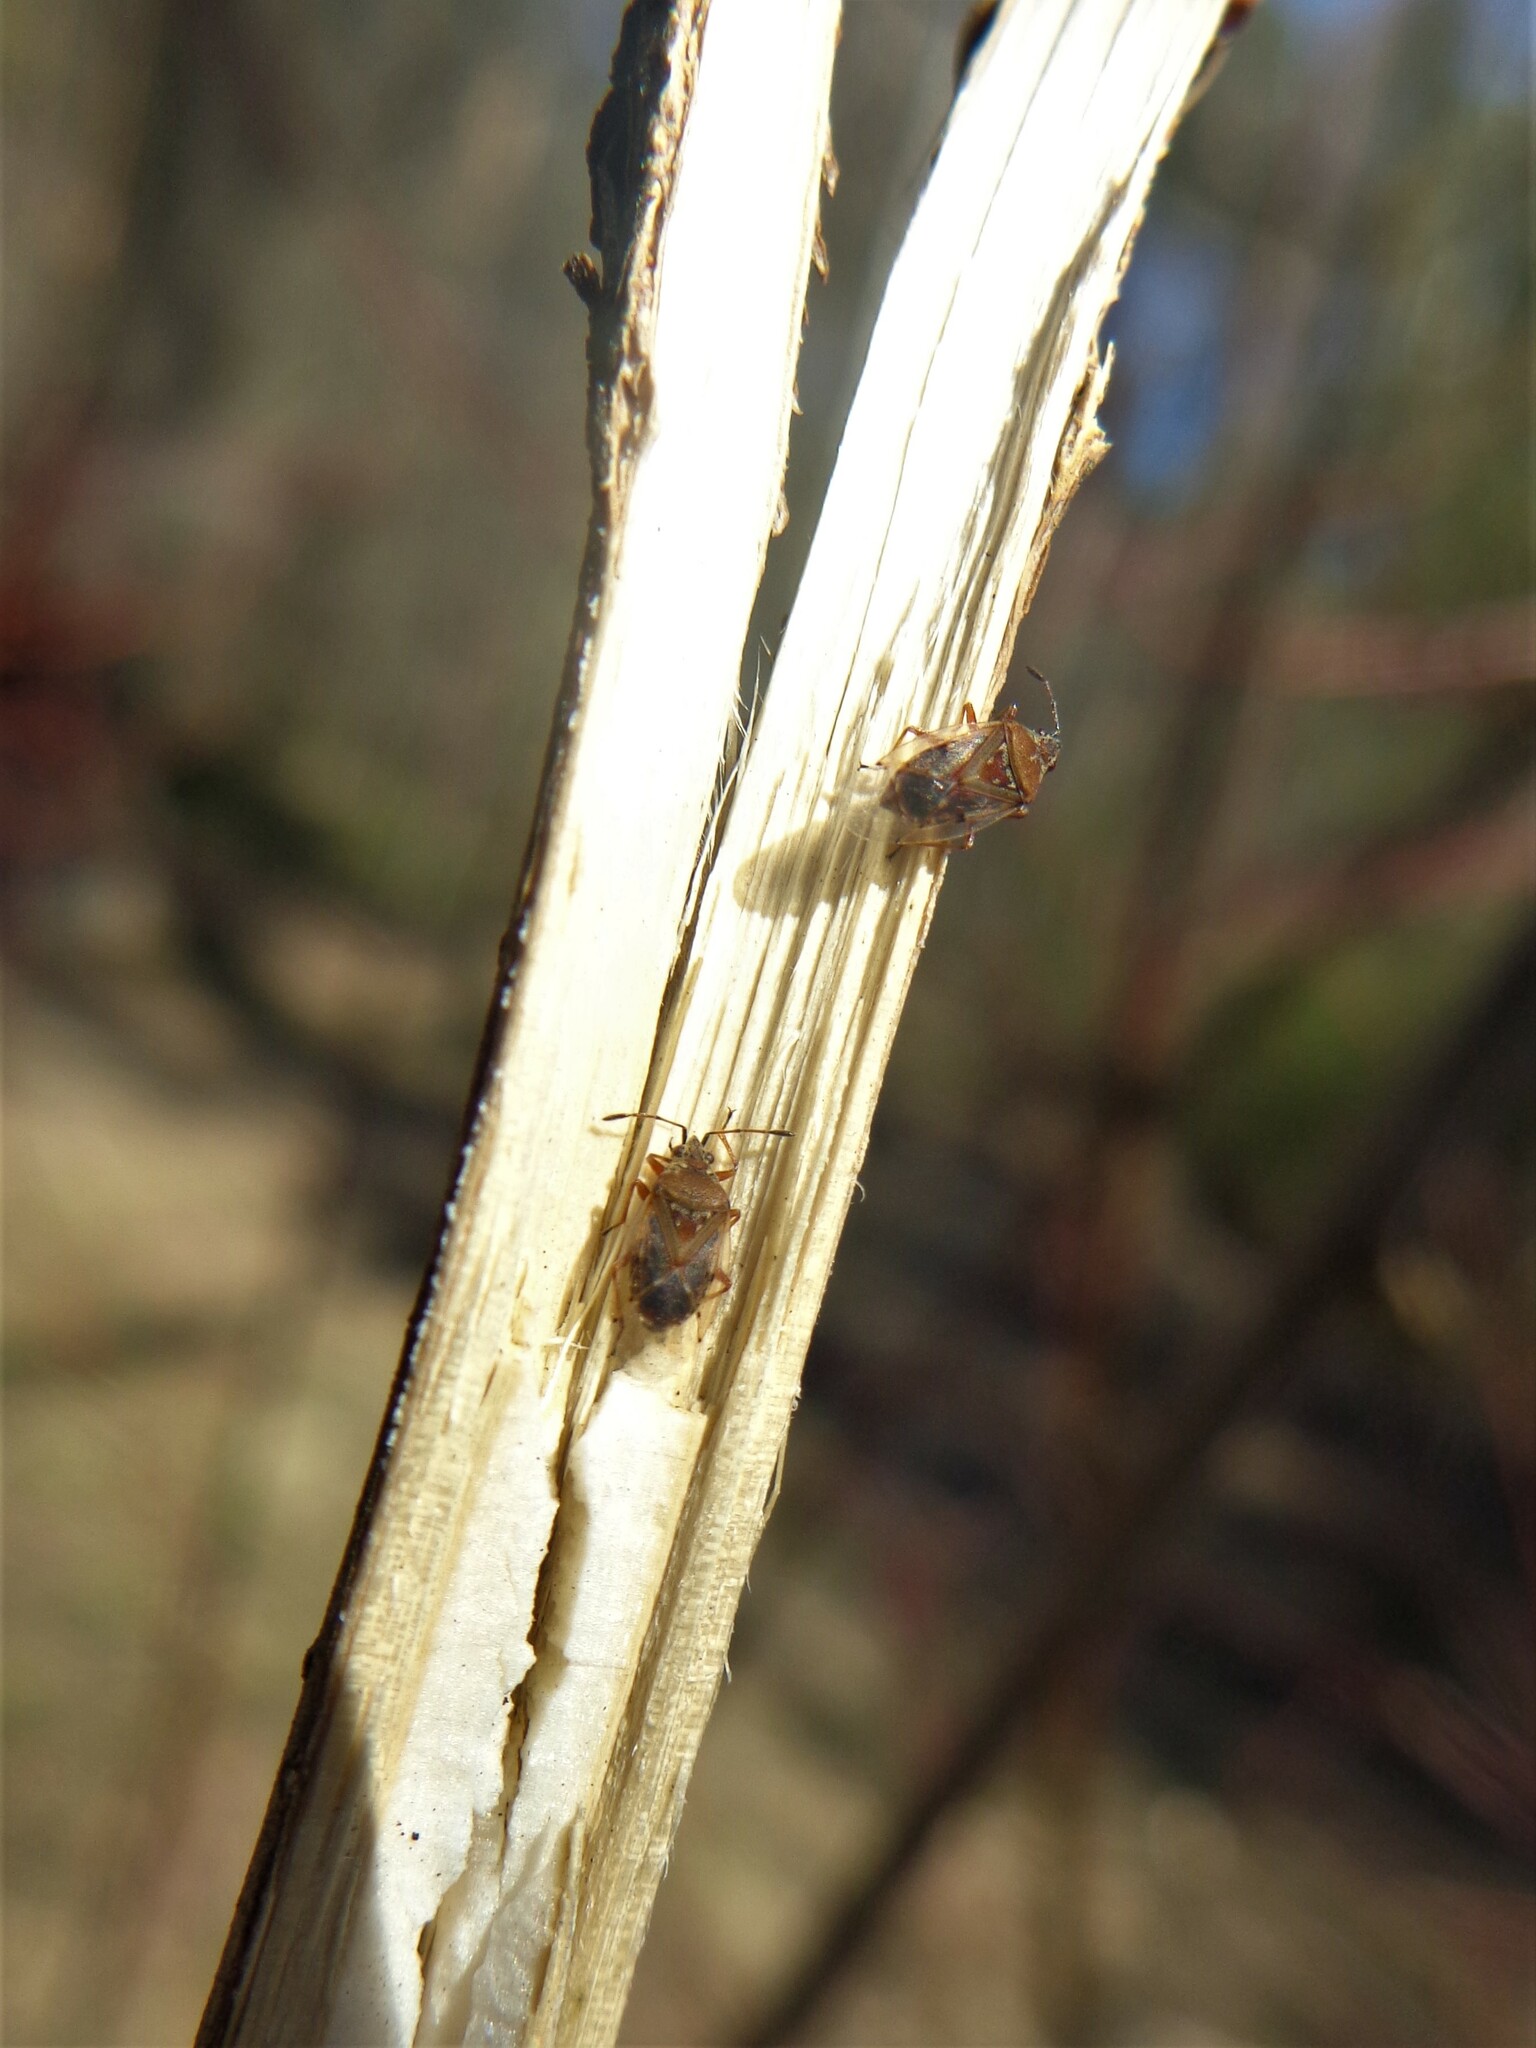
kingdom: Animalia
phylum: Arthropoda
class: Insecta
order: Hemiptera
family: Lygaeidae
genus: Kleidocerys
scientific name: Kleidocerys resedae
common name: Birch catkin bug
